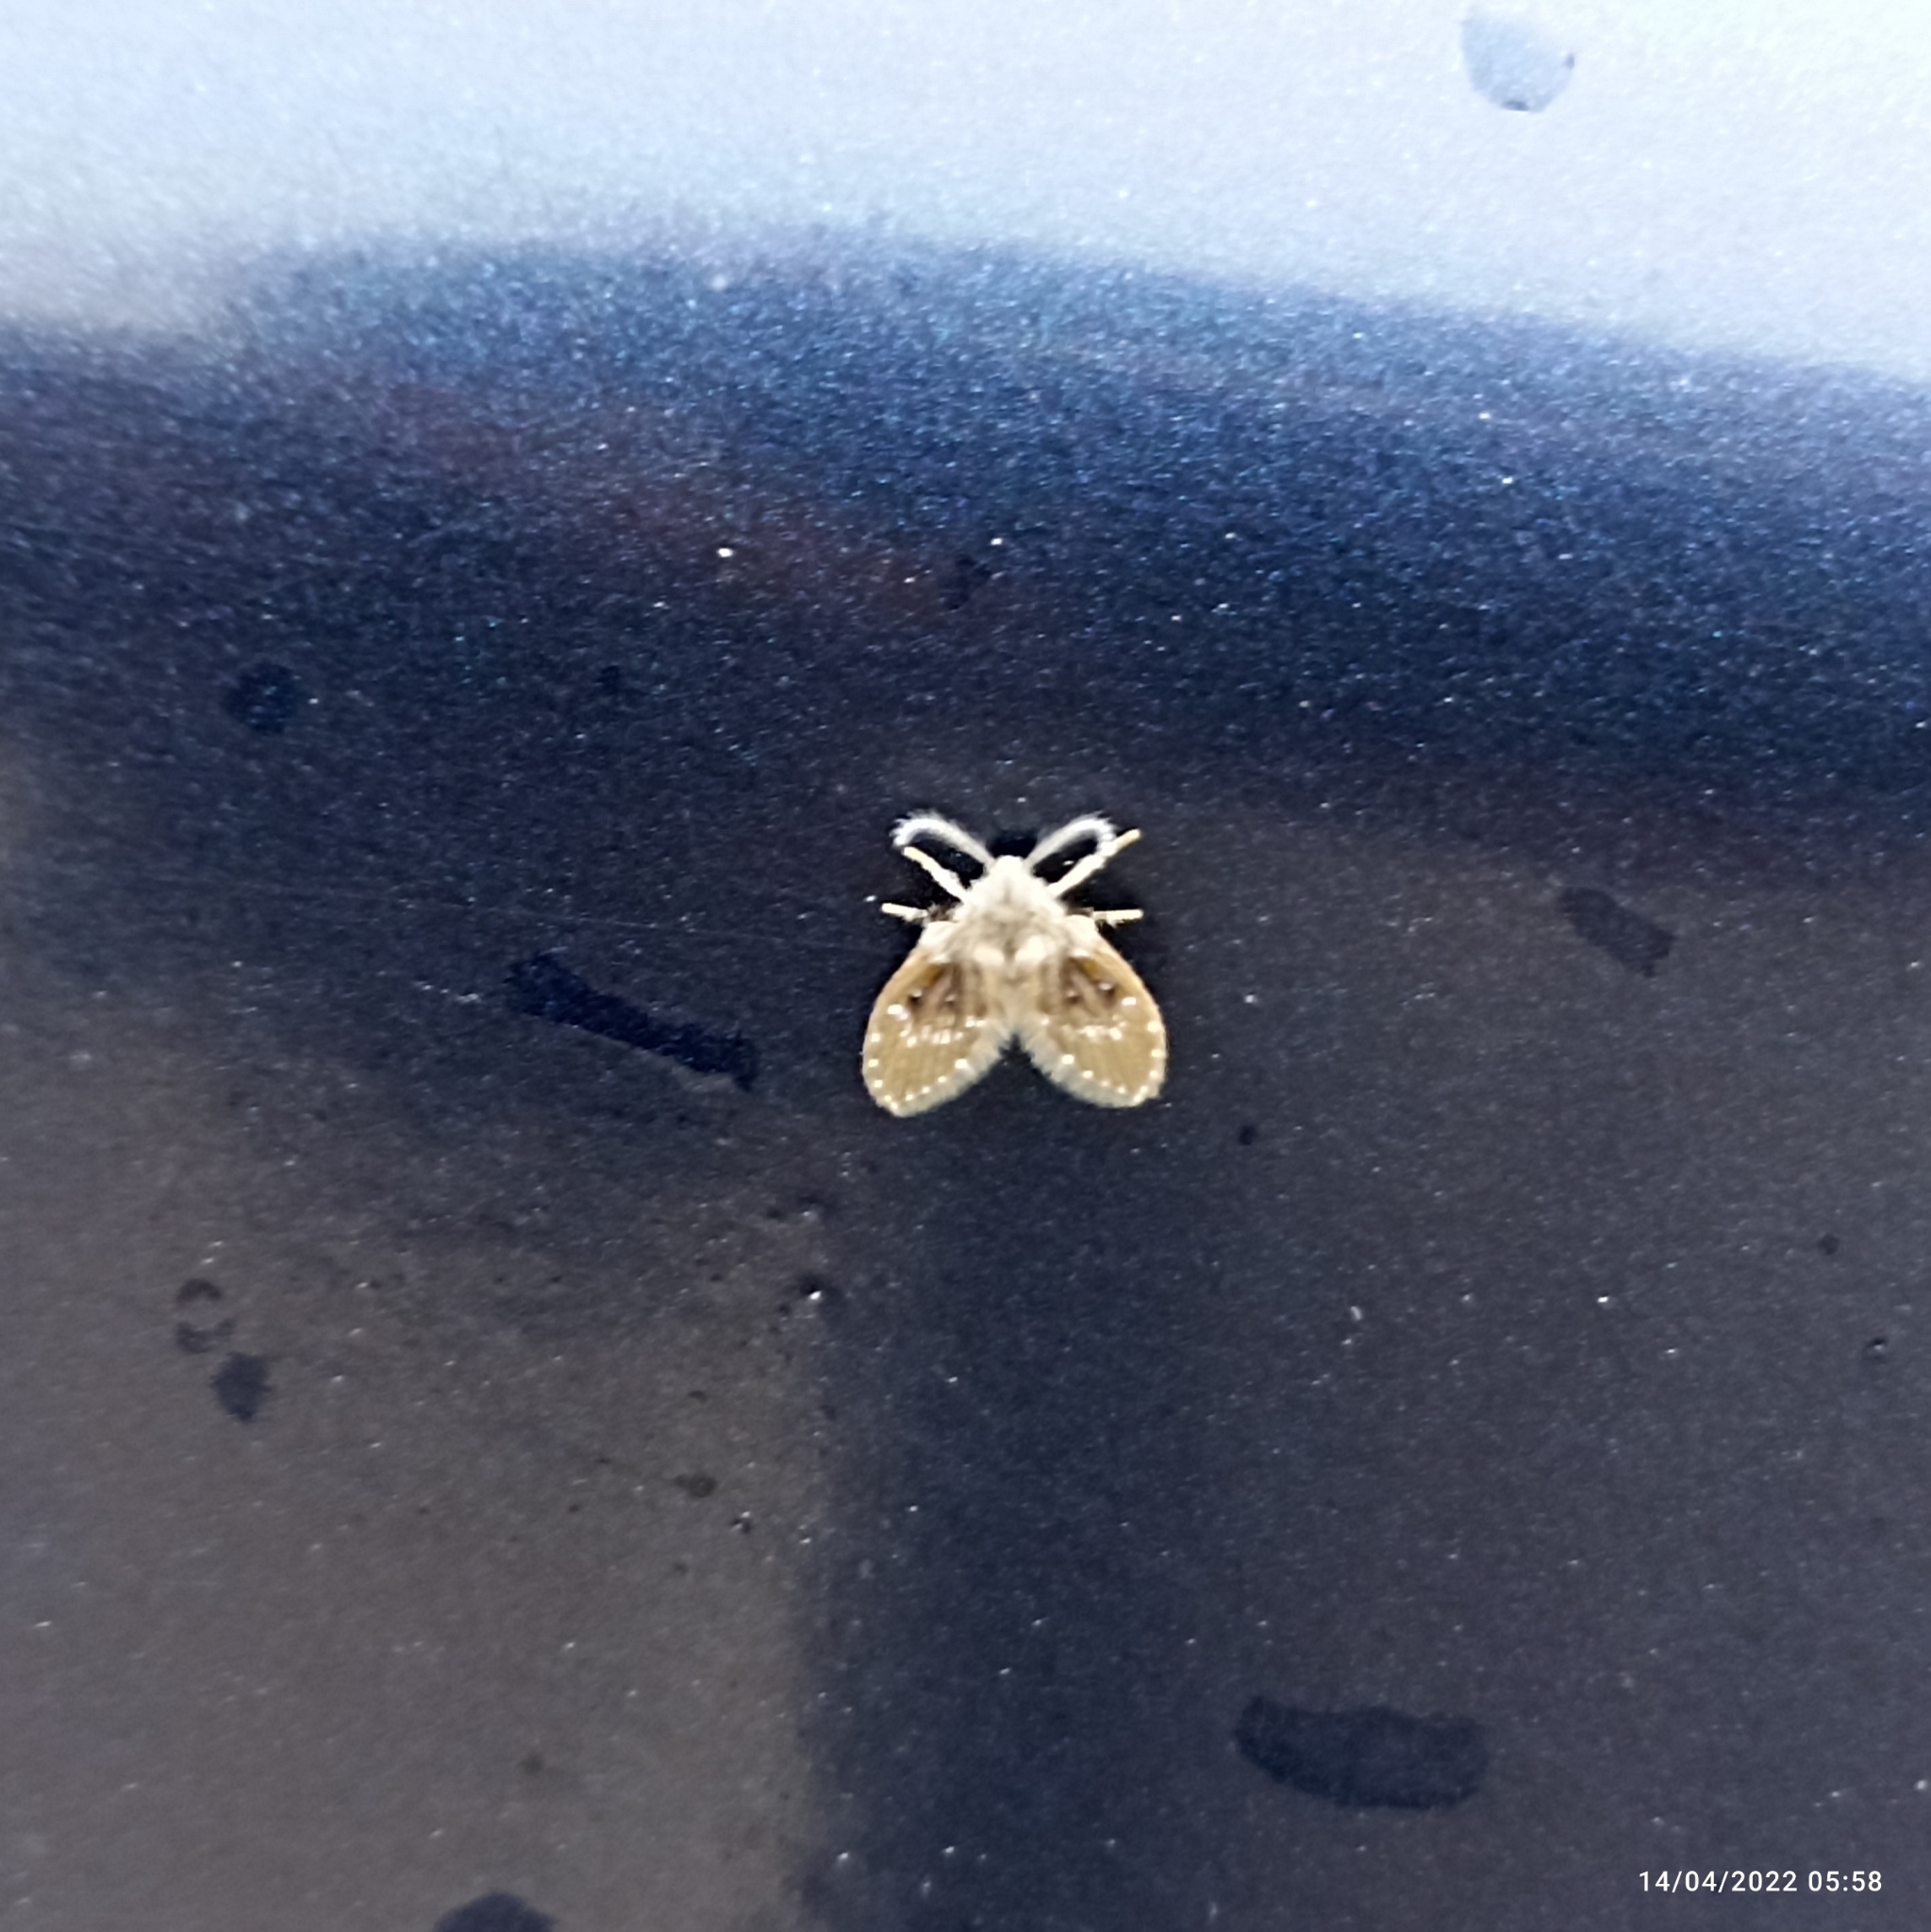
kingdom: Animalia
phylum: Arthropoda
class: Insecta
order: Diptera
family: Psychodidae
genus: Clogmia
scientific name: Clogmia albipunctatus
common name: White-spotted moth fly
